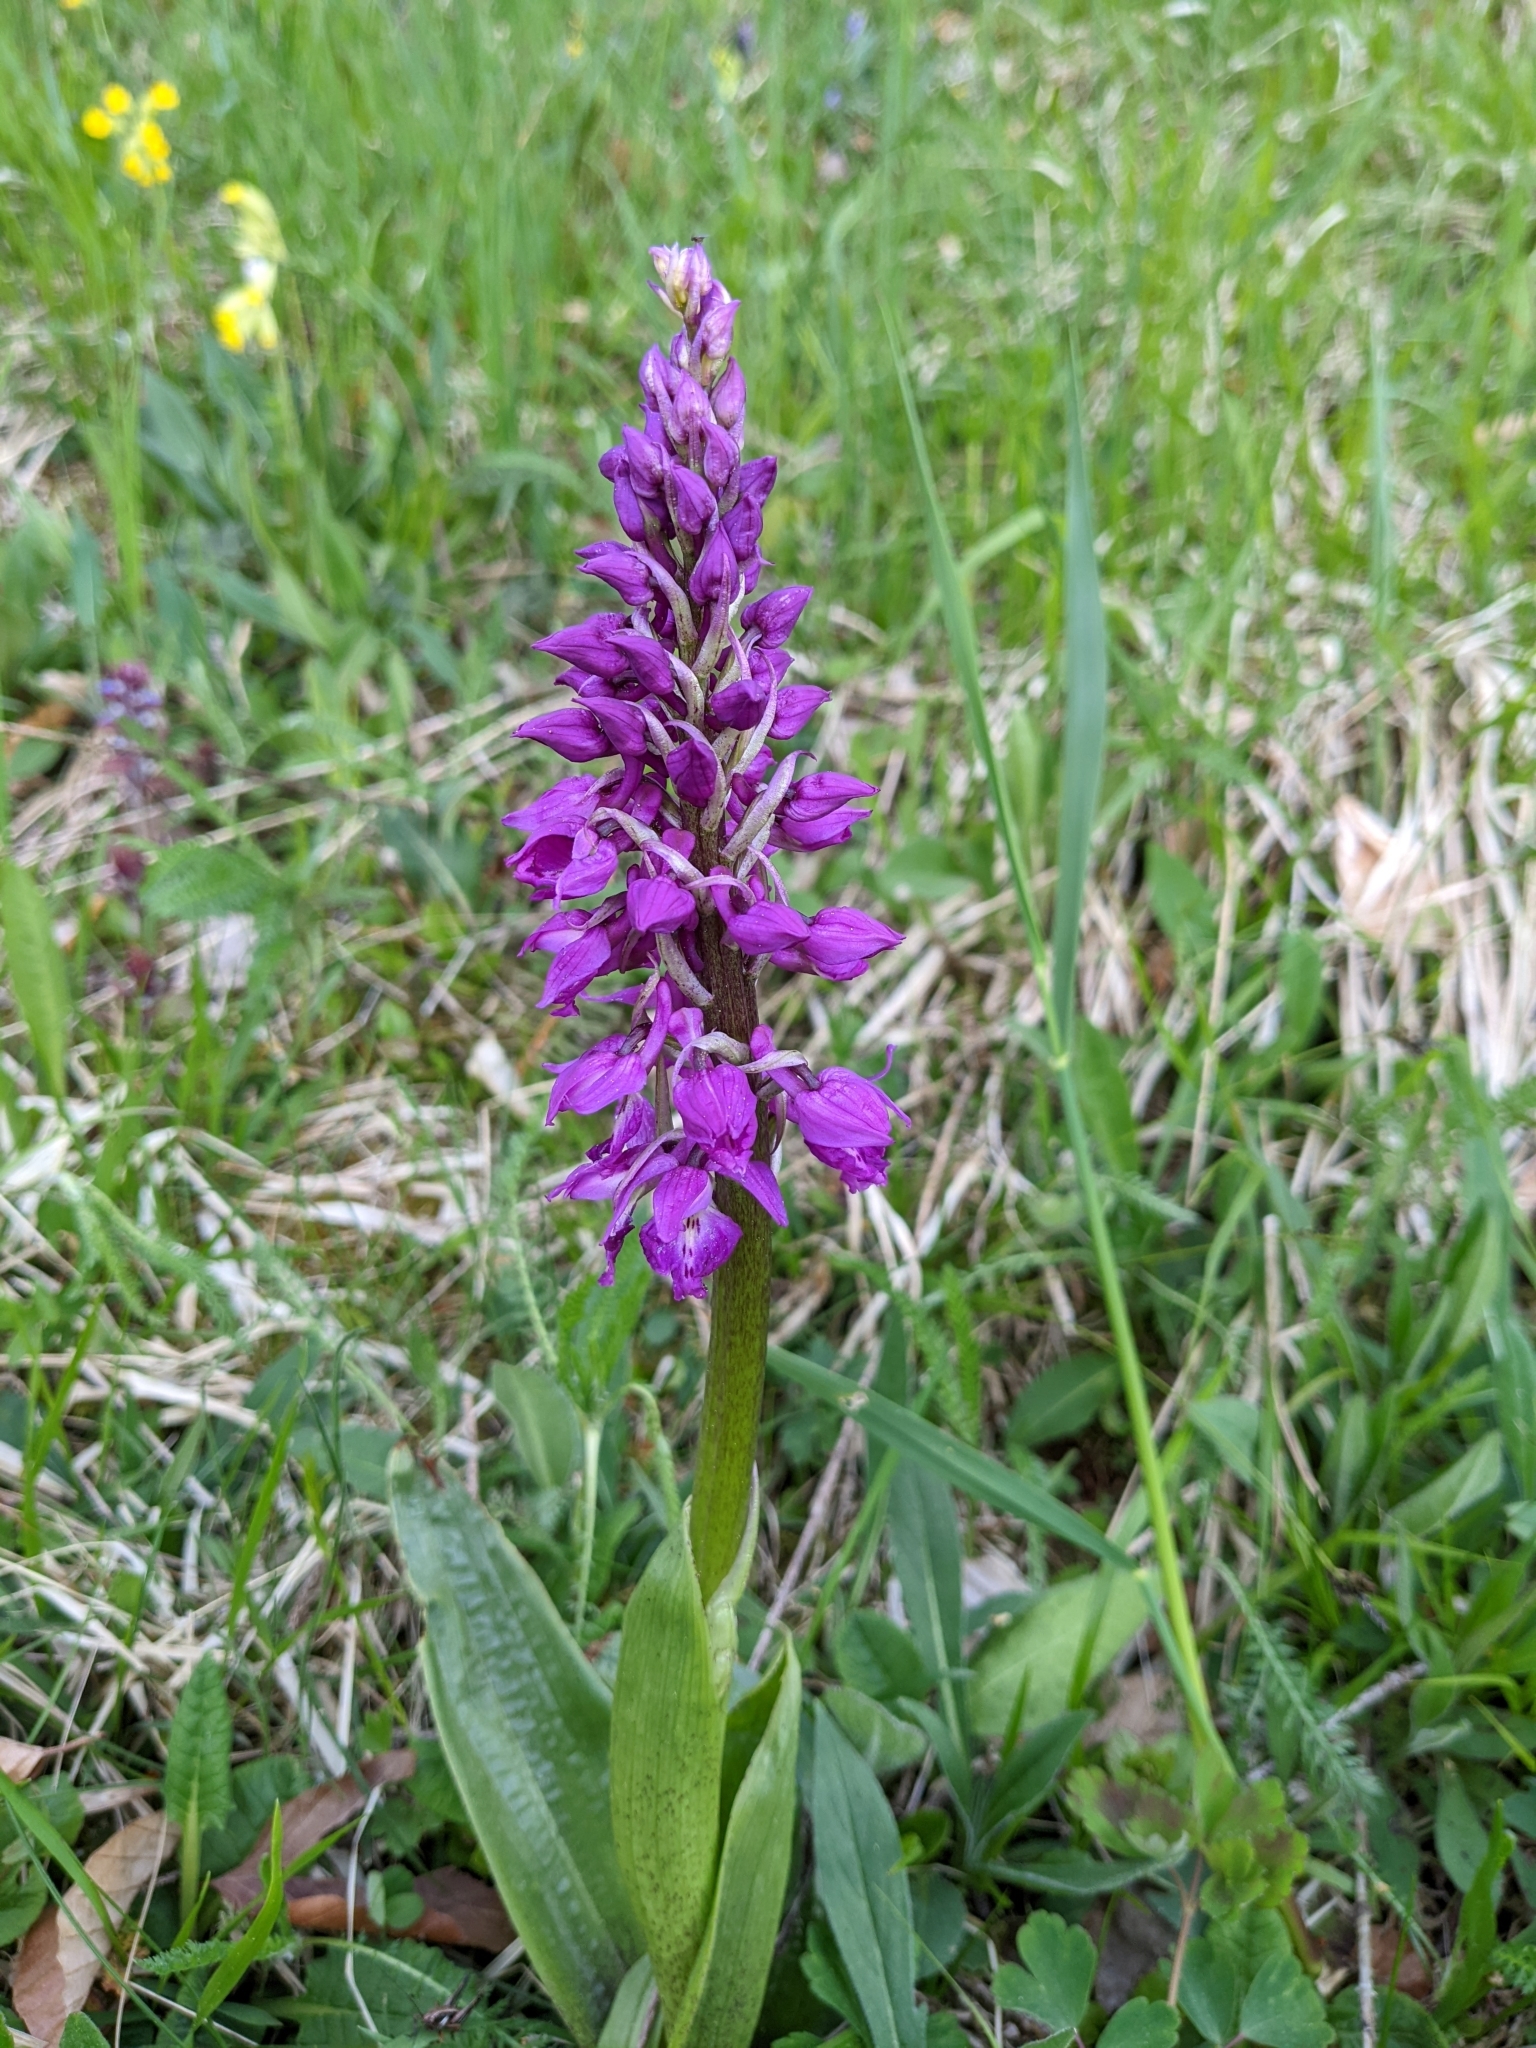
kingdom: Plantae
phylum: Tracheophyta
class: Liliopsida
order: Asparagales
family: Orchidaceae
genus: Orchis
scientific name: Orchis mascula
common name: Early-purple orchid
